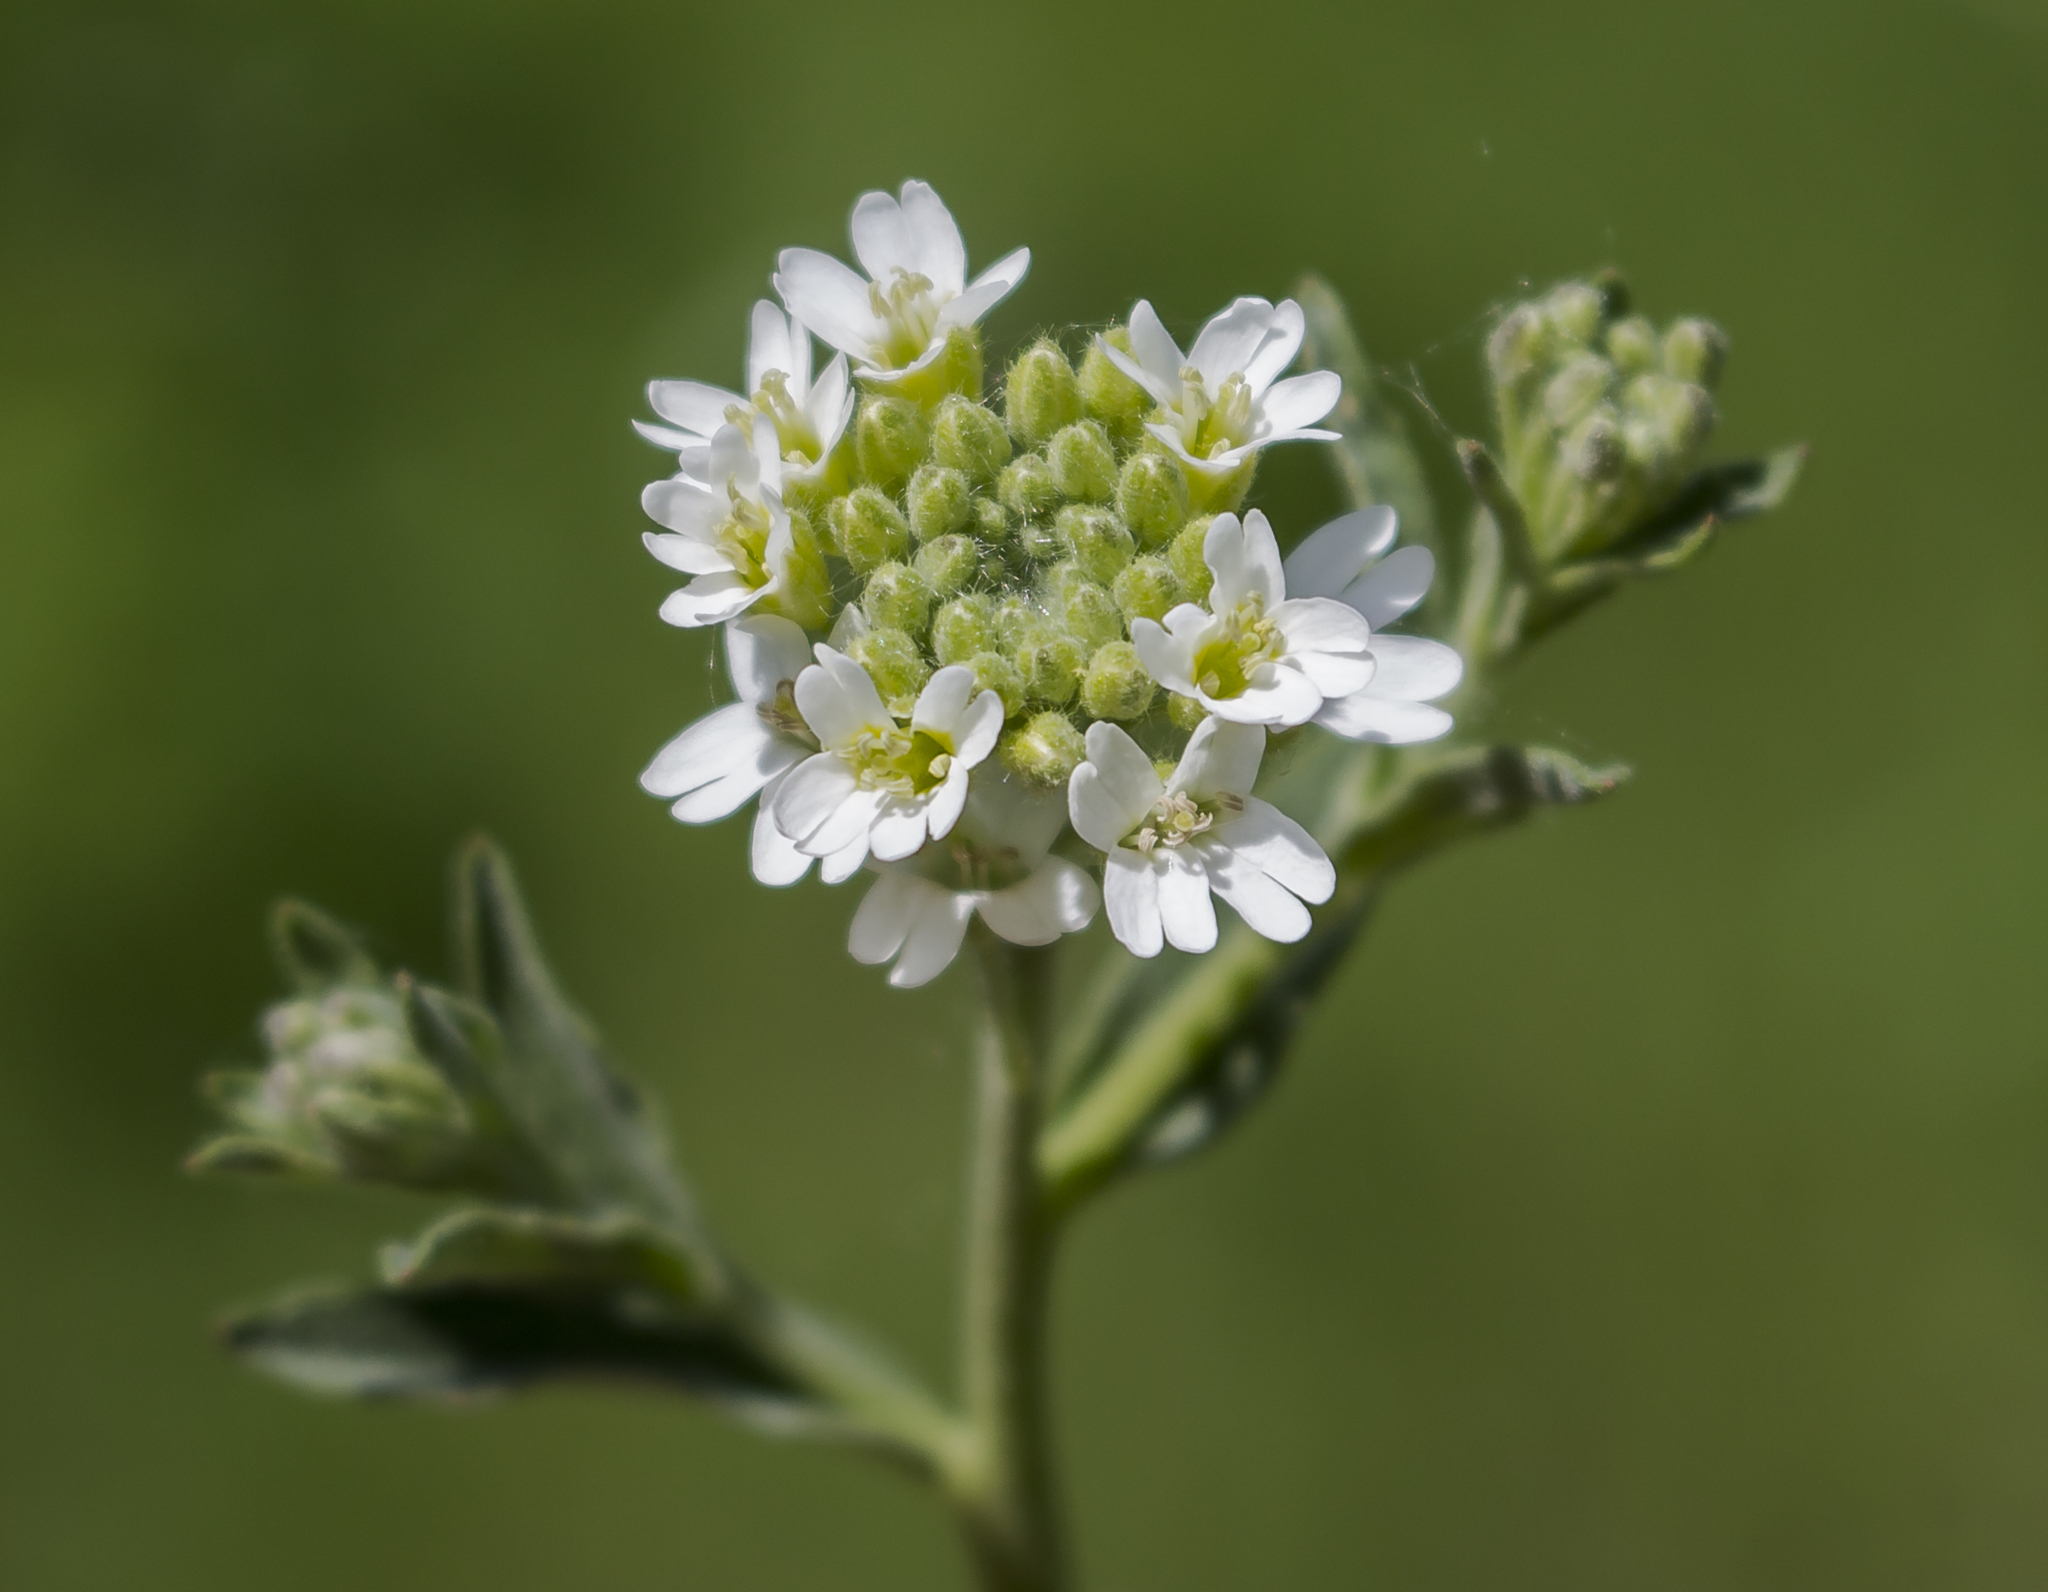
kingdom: Plantae
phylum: Tracheophyta
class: Magnoliopsida
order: Brassicales
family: Brassicaceae
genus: Berteroa
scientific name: Berteroa incana
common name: Hoary alison
